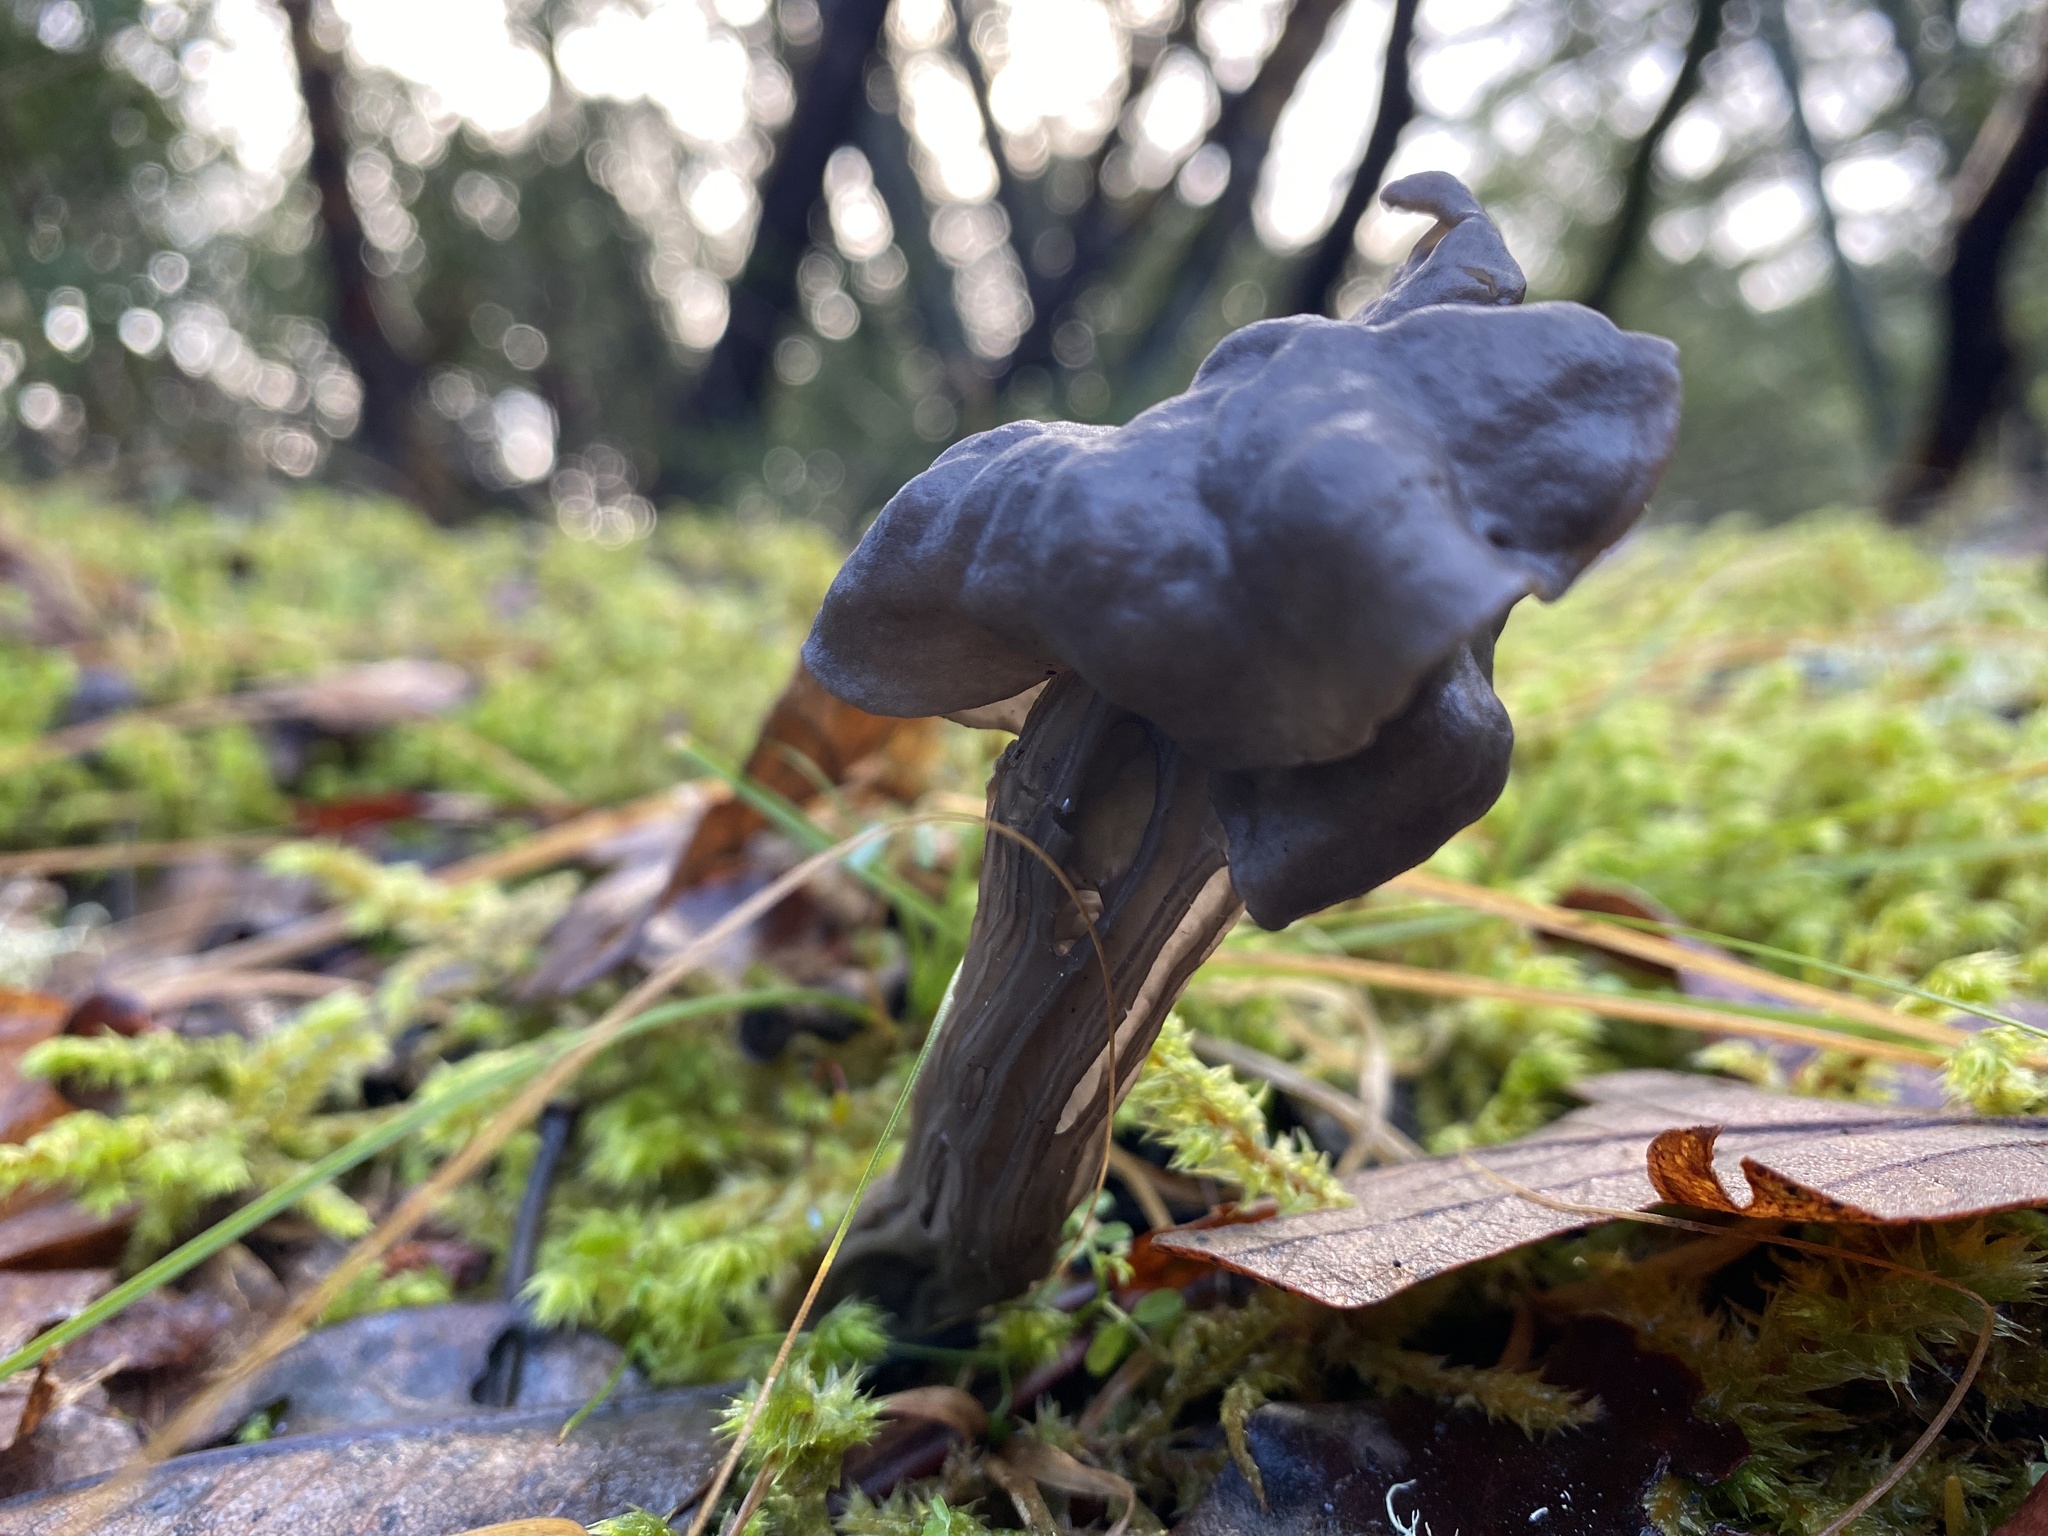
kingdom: Fungi
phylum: Ascomycota
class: Pezizomycetes
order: Pezizales
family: Helvellaceae
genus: Helvella
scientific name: Helvella vespertina
